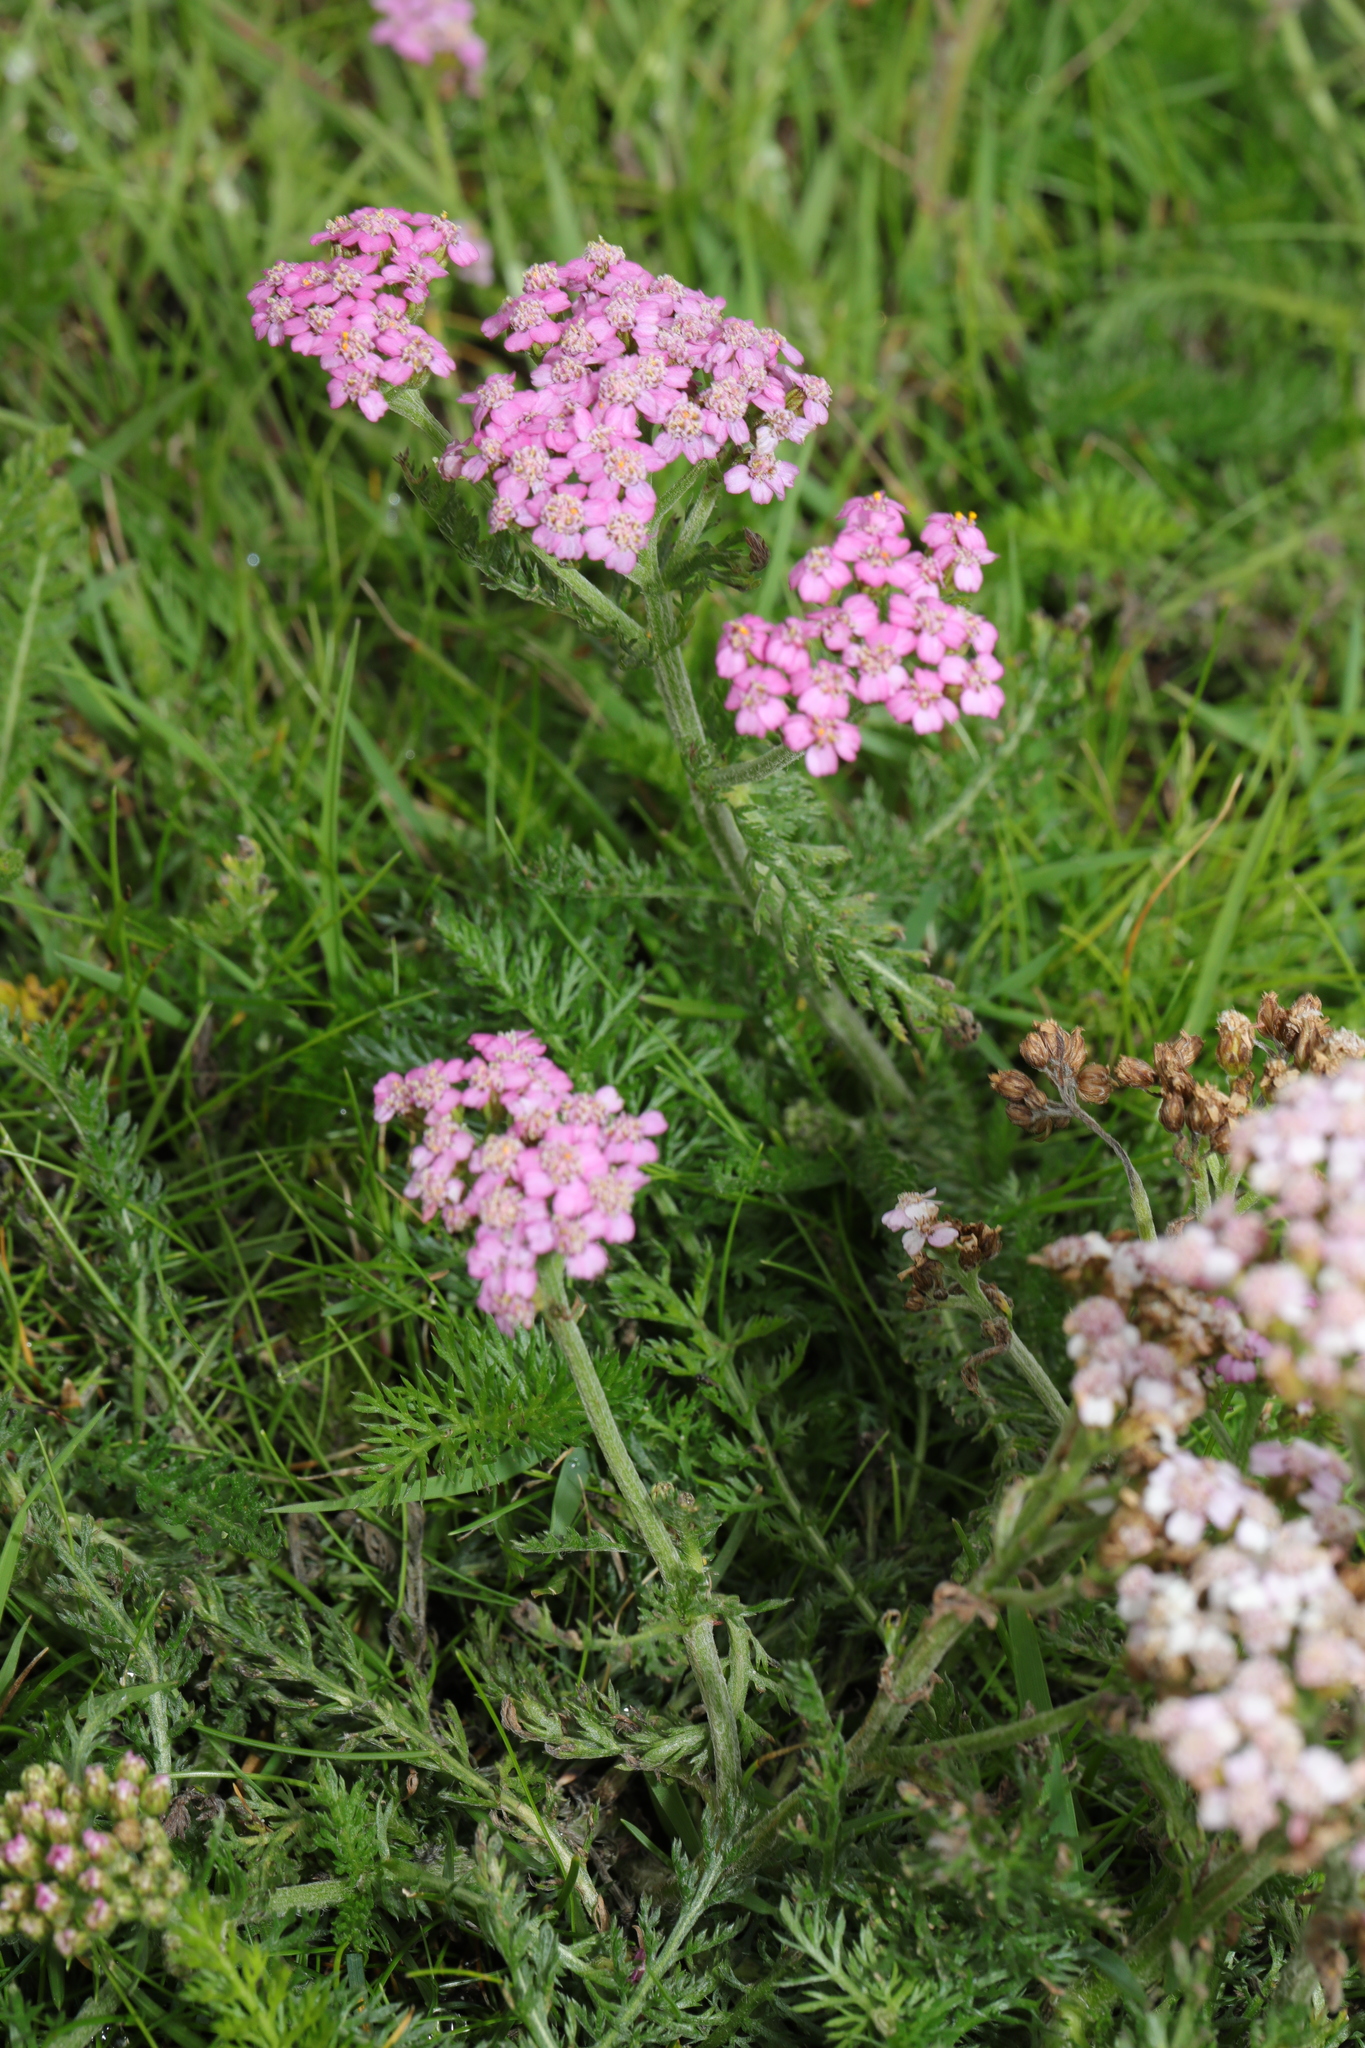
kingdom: Plantae
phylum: Tracheophyta
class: Magnoliopsida
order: Asterales
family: Asteraceae
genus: Achillea
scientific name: Achillea millefolium
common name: Yarrow
